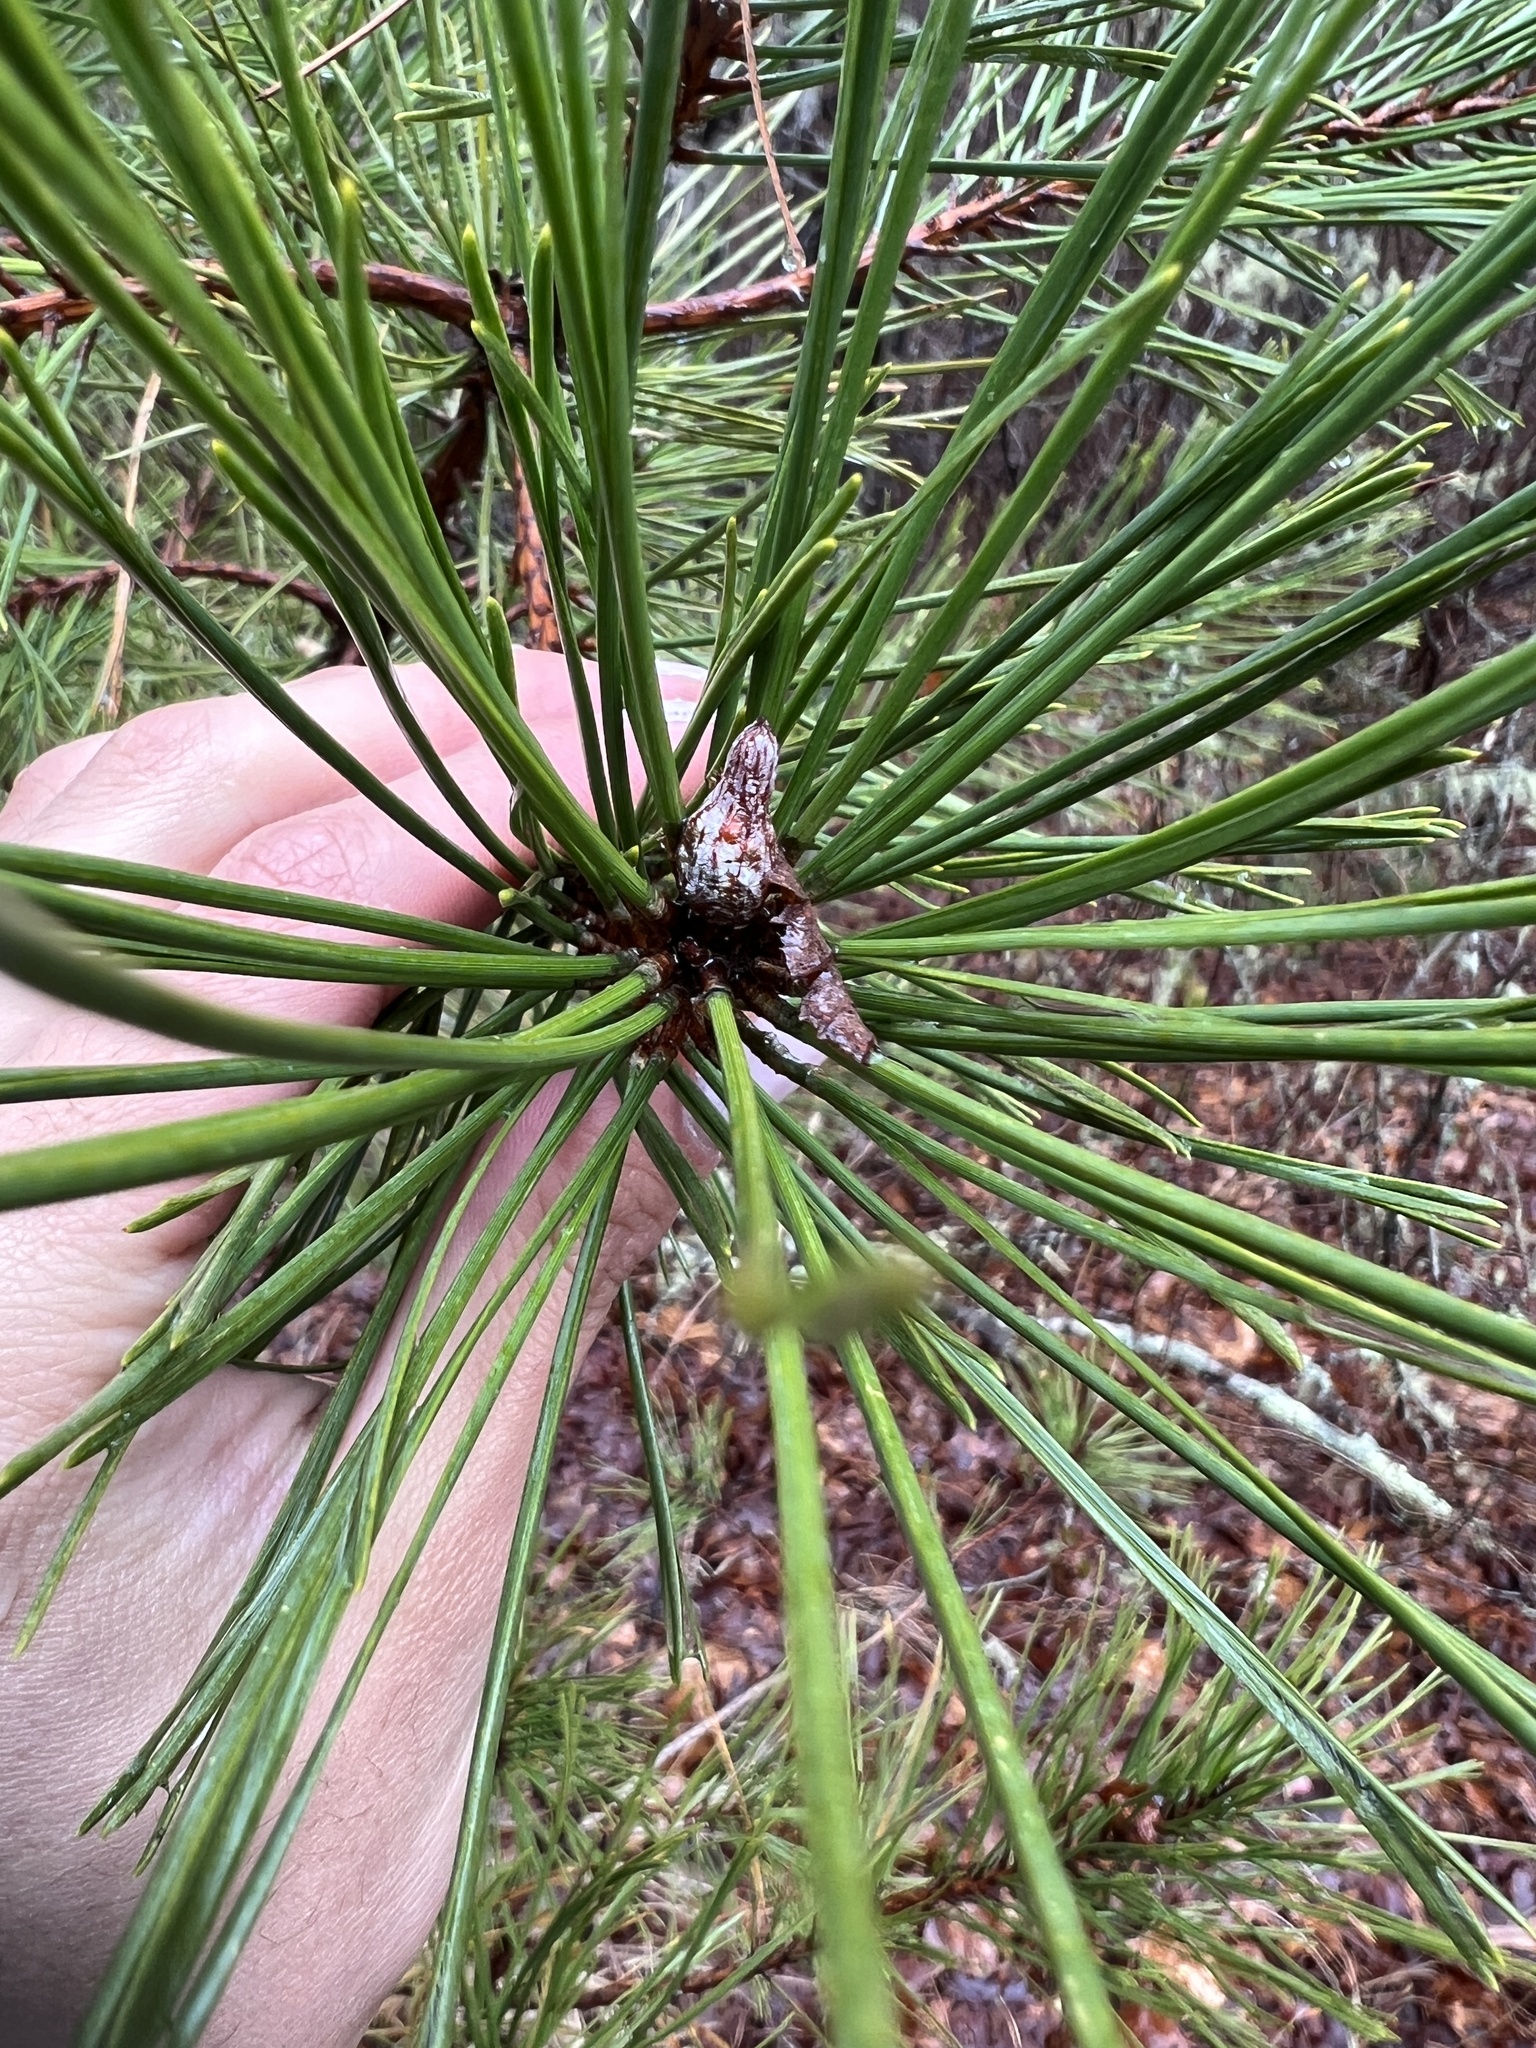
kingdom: Plantae
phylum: Tracheophyta
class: Pinopsida
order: Pinales
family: Pinaceae
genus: Pinus
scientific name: Pinus rigida
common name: Pitch pine
